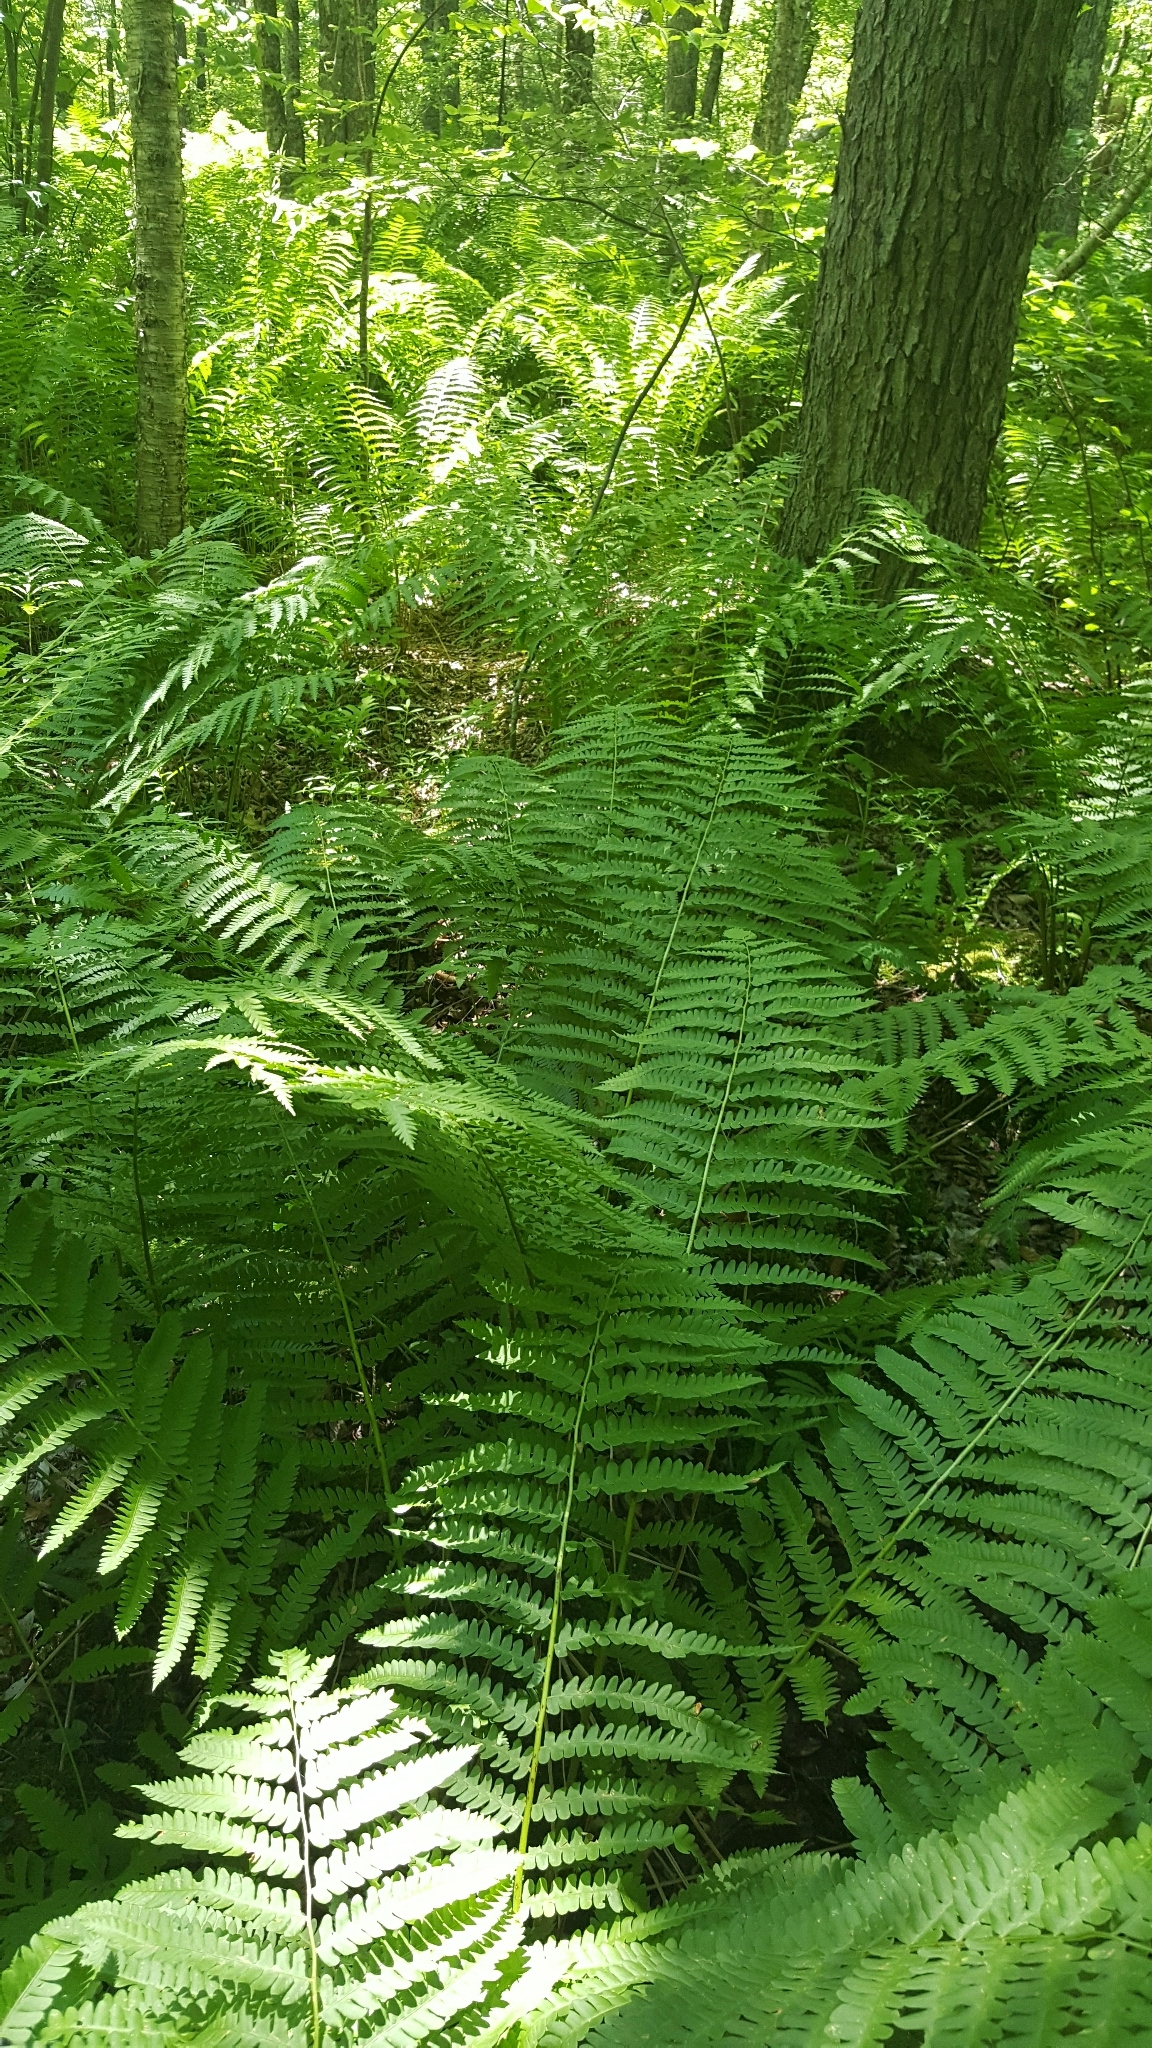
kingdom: Plantae
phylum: Tracheophyta
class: Polypodiopsida
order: Osmundales
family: Osmundaceae
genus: Osmundastrum
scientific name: Osmundastrum cinnamomeum
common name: Cinnamon fern
